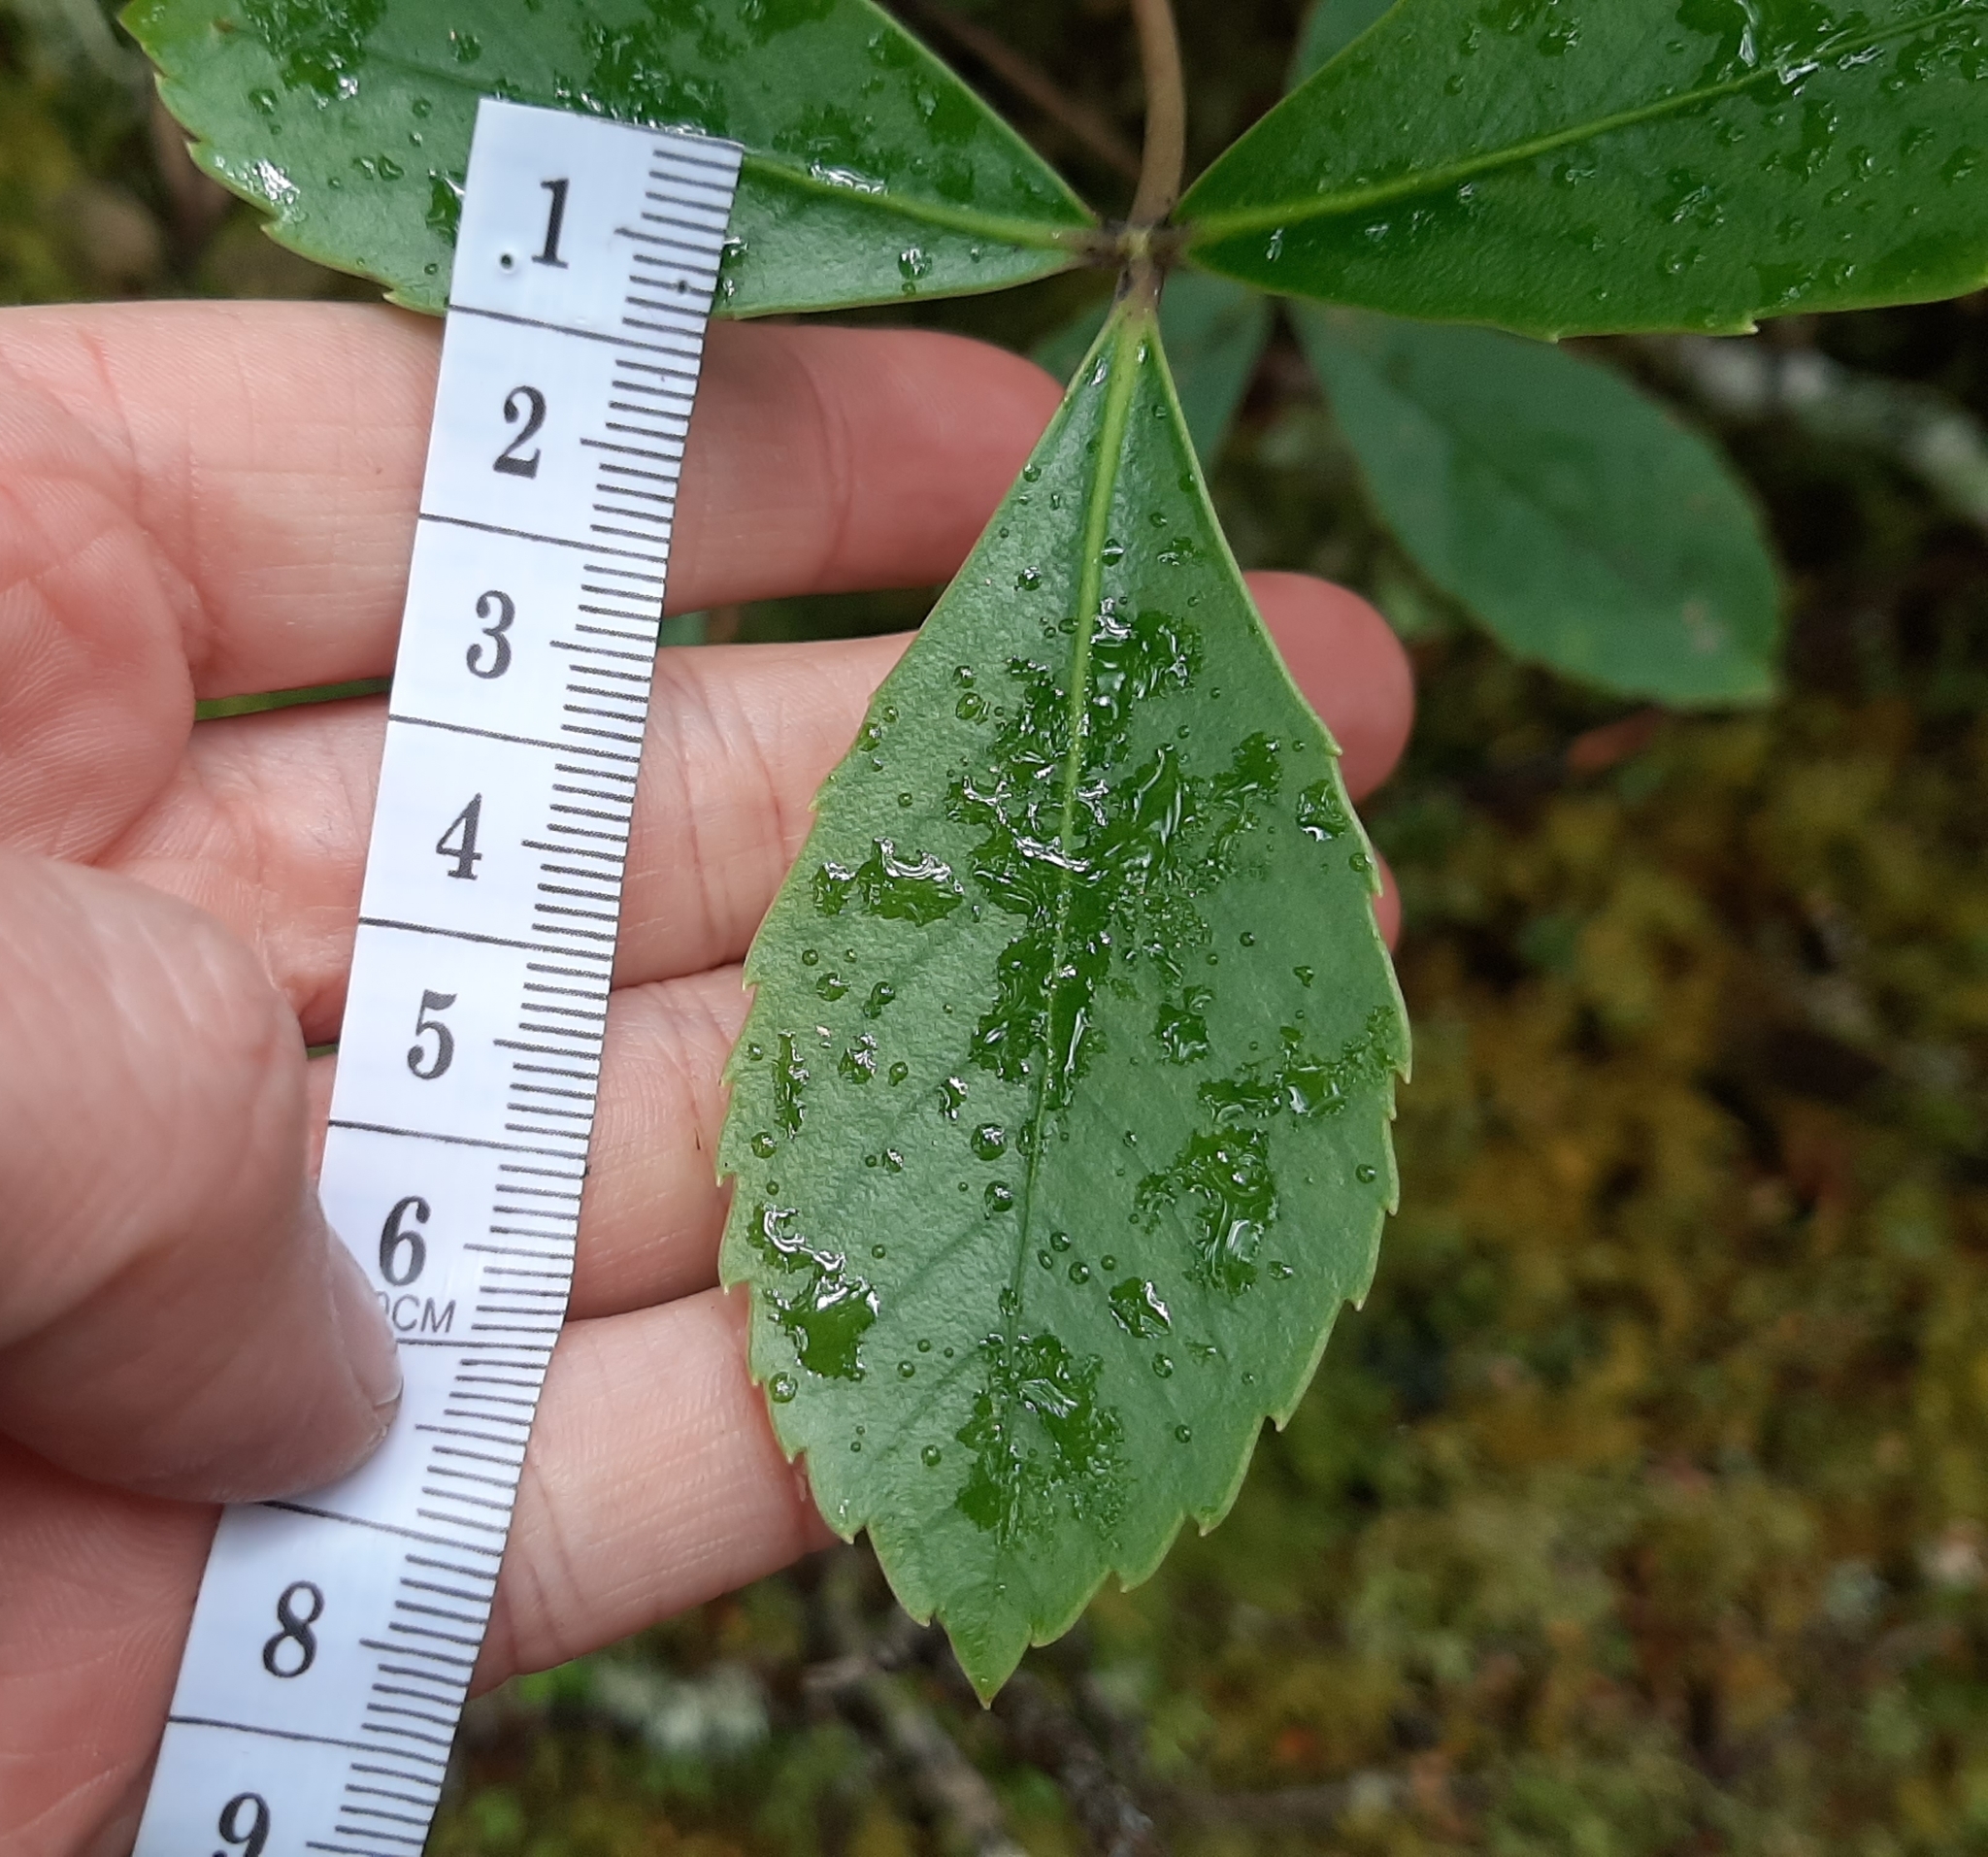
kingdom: Plantae
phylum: Tracheophyta
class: Magnoliopsida
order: Apiales
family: Araliaceae
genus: Neopanax
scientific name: Neopanax colensoi
